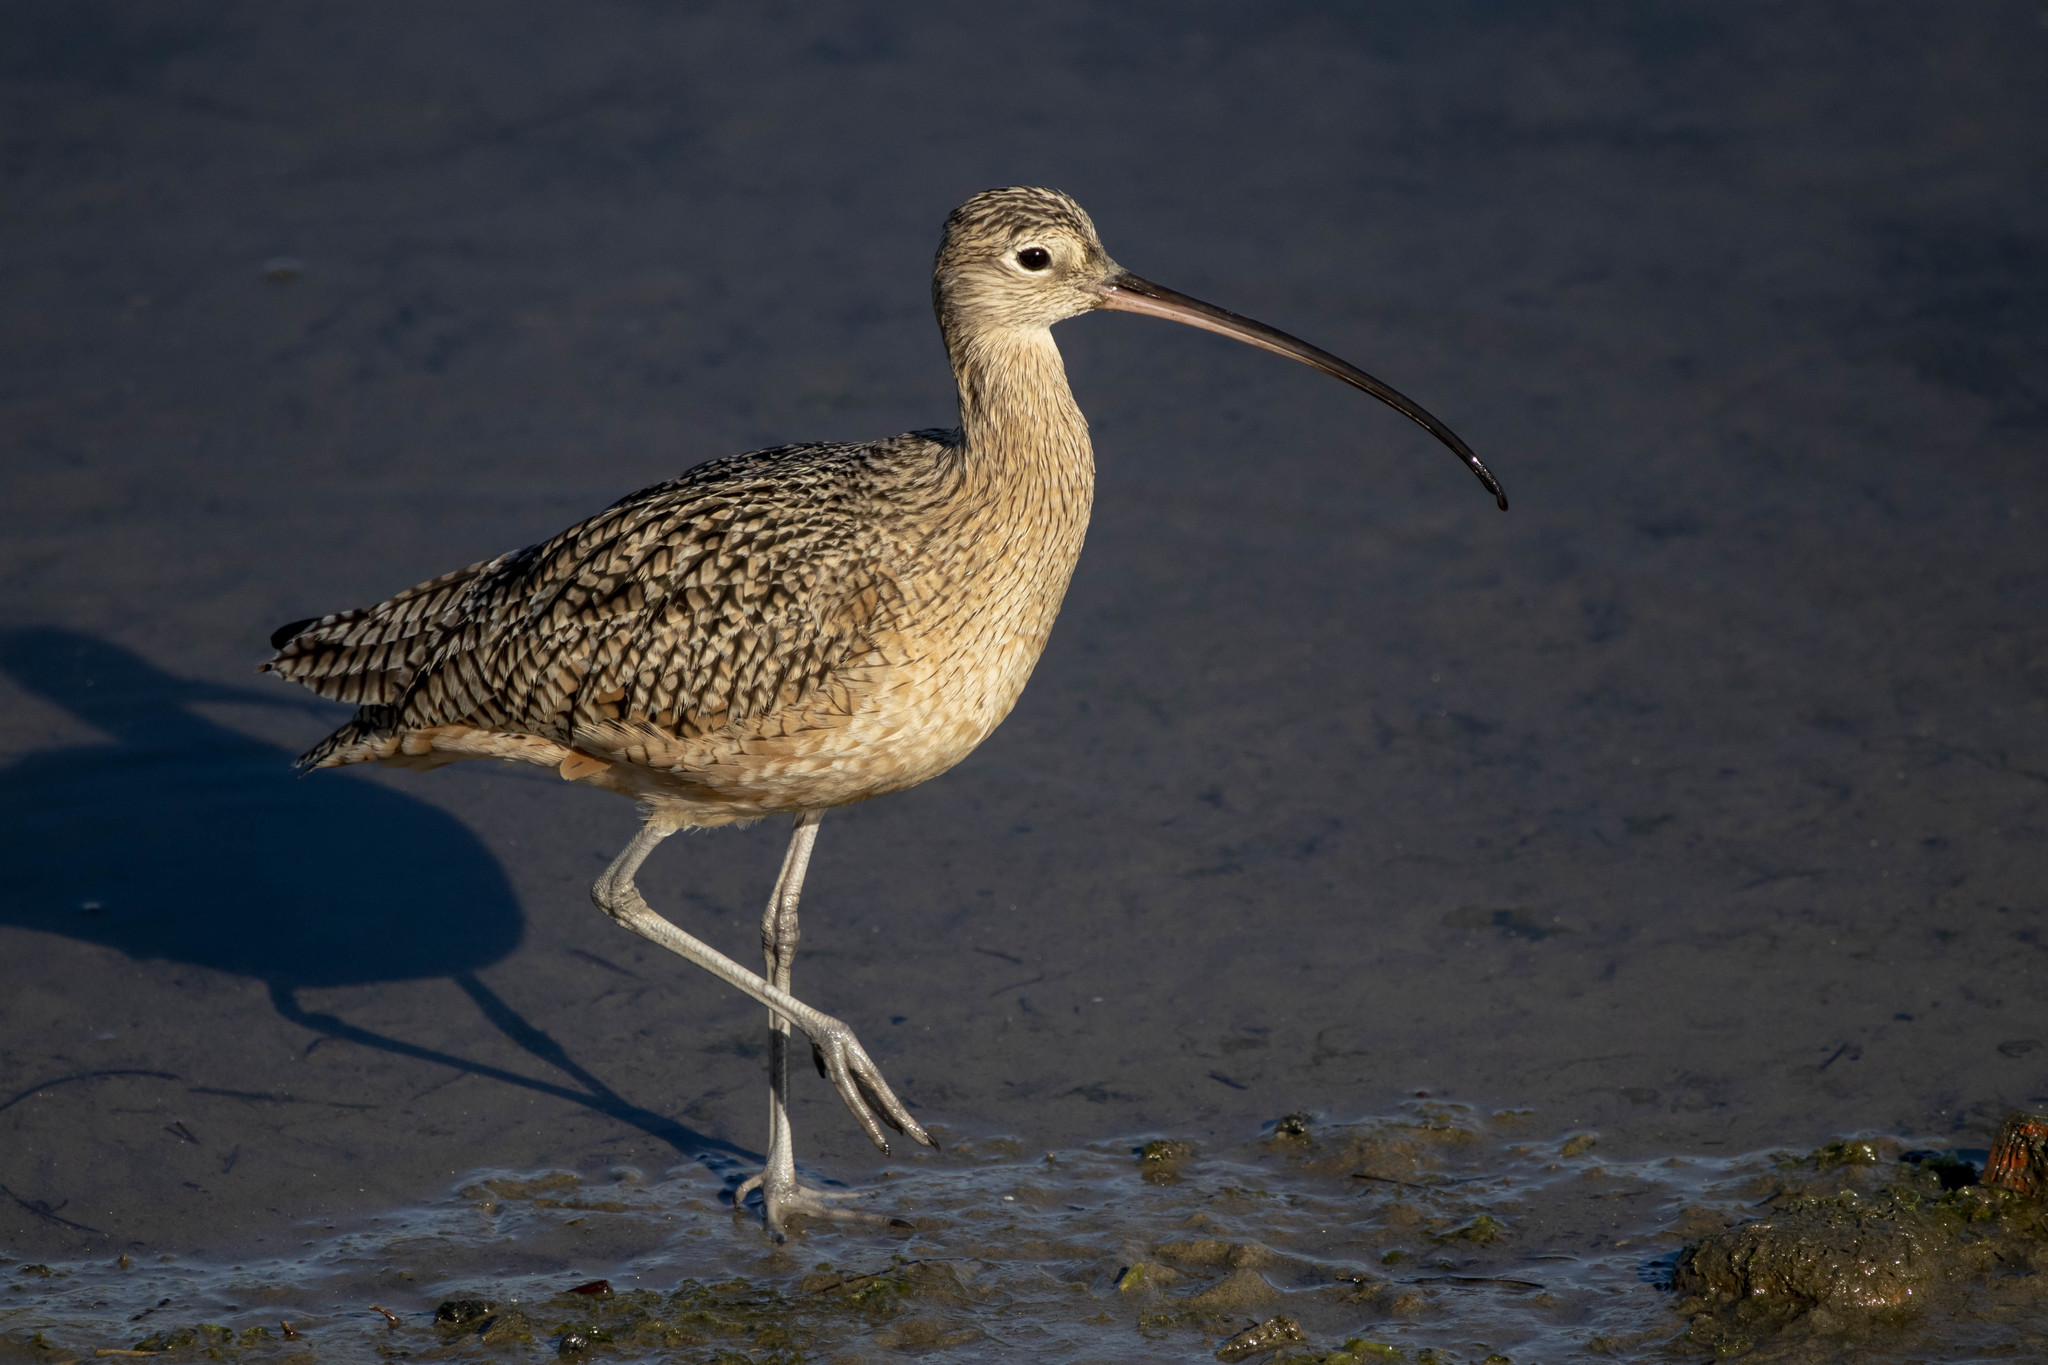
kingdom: Animalia
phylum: Chordata
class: Aves
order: Charadriiformes
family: Scolopacidae
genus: Numenius
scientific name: Numenius americanus
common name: Long-billed curlew
